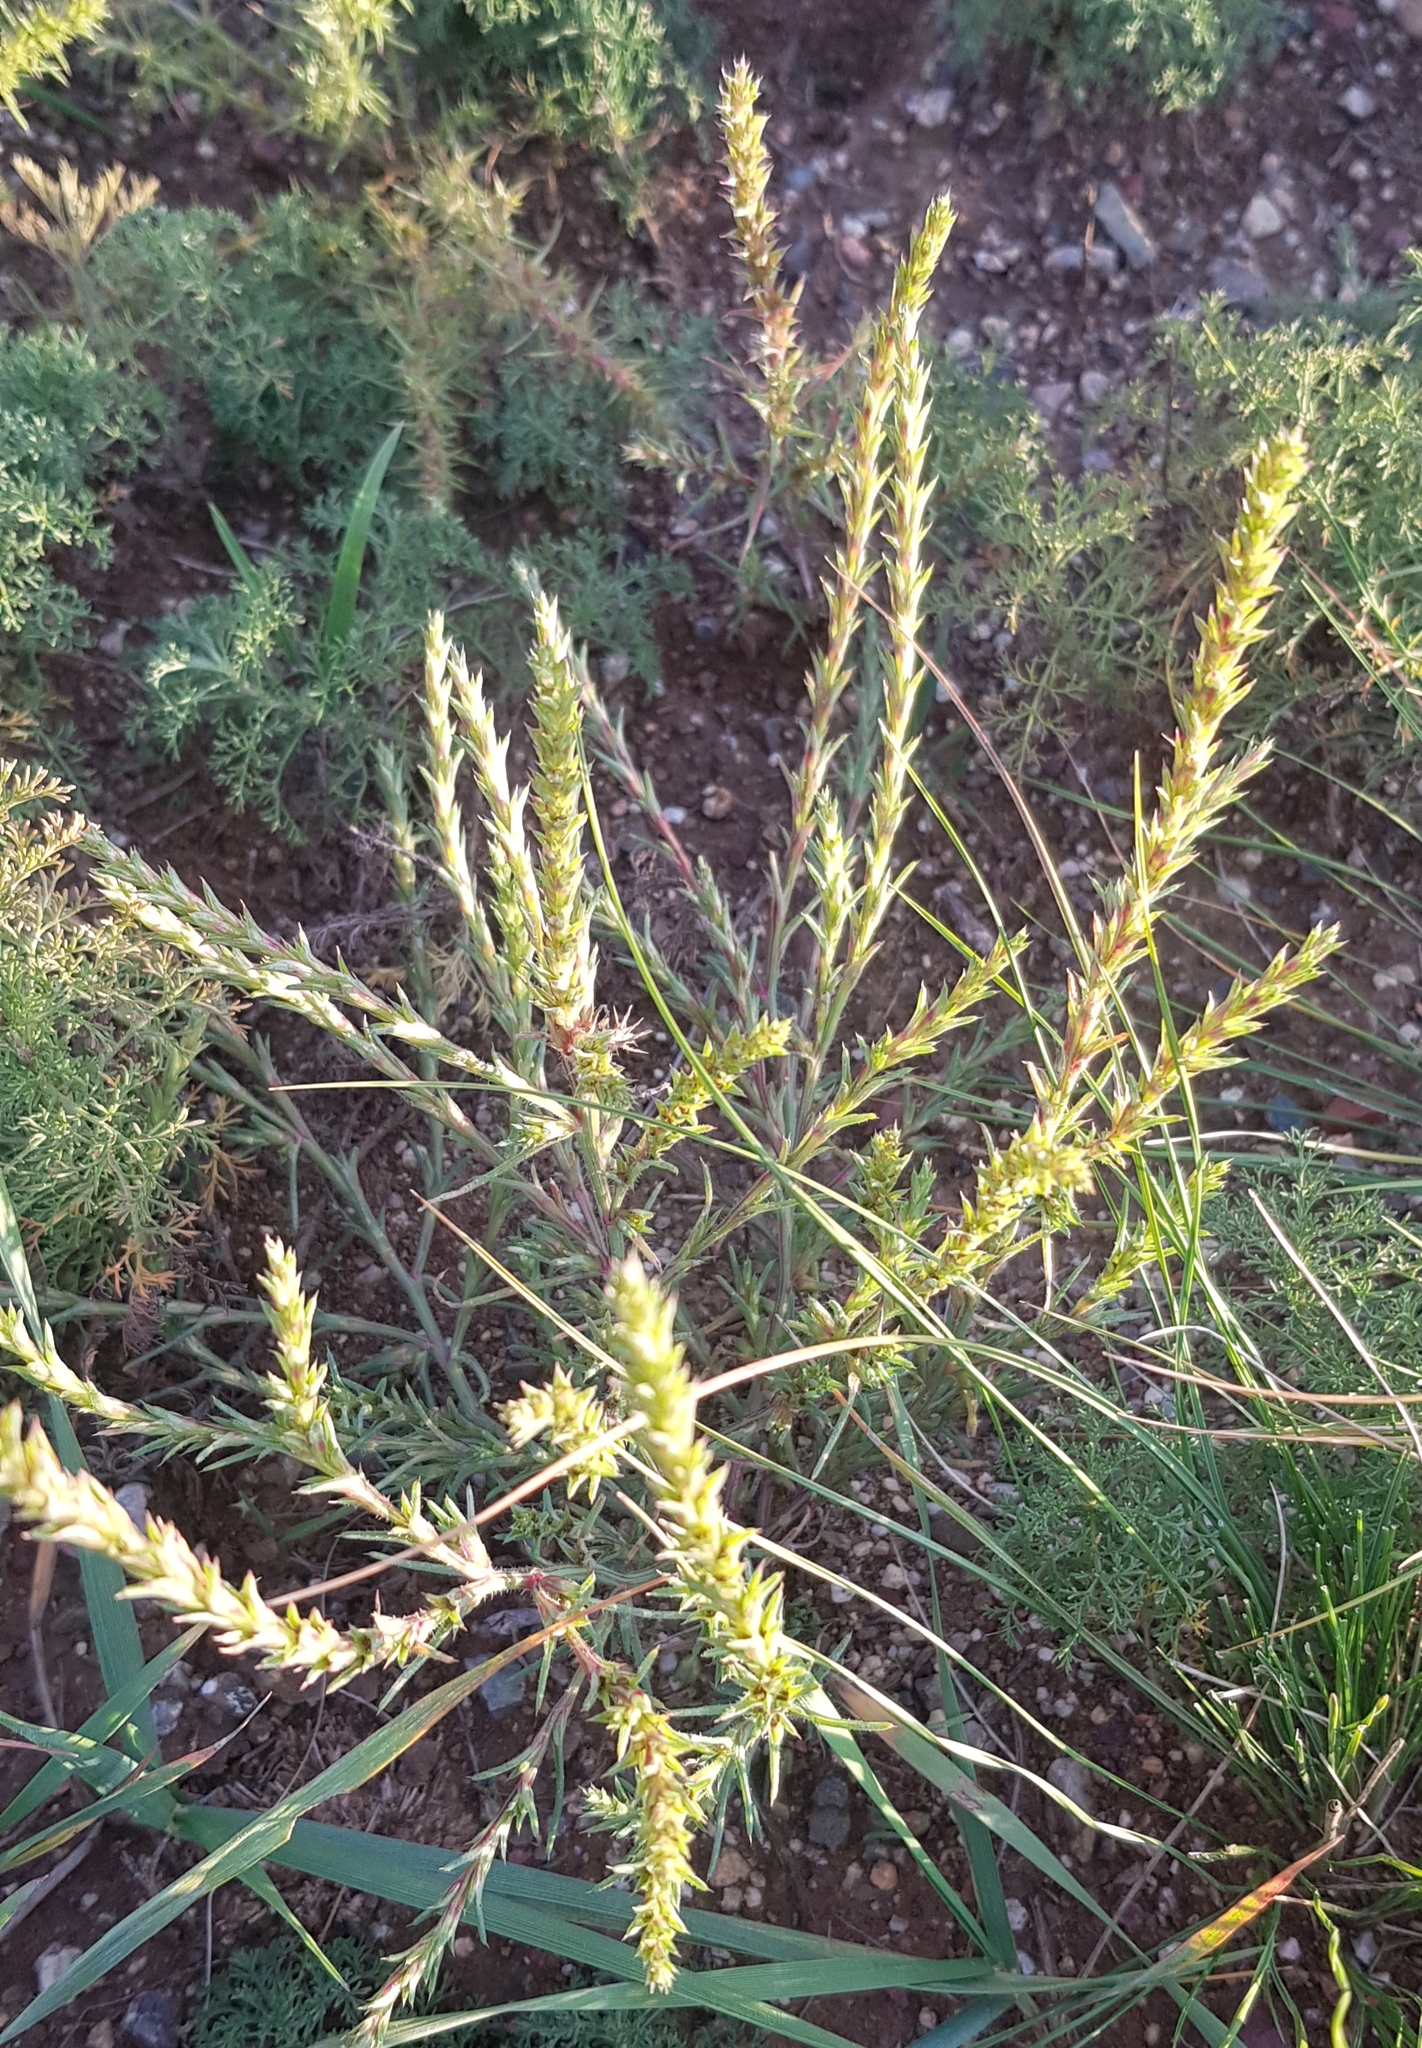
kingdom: Plantae
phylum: Tracheophyta
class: Magnoliopsida
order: Caryophyllales
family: Amaranthaceae
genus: Salsola
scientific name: Salsola collina
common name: Tumbleweed
